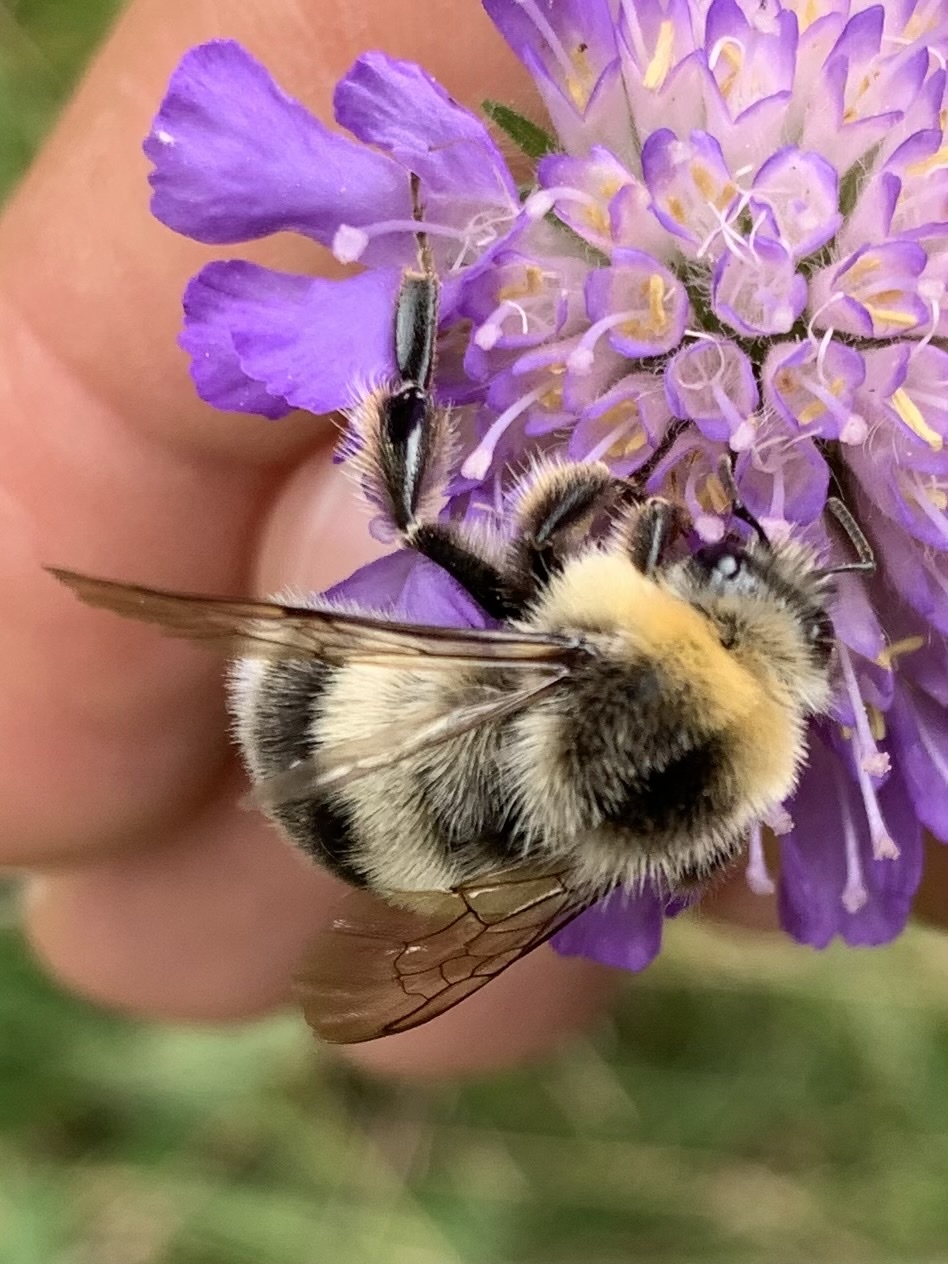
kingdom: Animalia
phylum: Arthropoda
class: Insecta
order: Hymenoptera
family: Apidae
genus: Bombus
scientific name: Bombus lucorum
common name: White-tailed bumblebee
